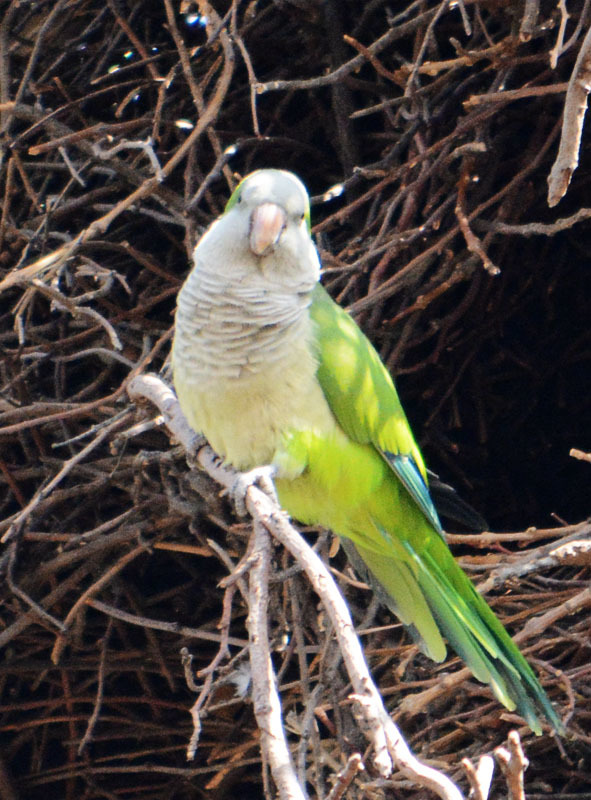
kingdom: Animalia
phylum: Chordata
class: Aves
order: Psittaciformes
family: Psittacidae
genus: Myiopsitta
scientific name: Myiopsitta monachus
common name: Monk parakeet
